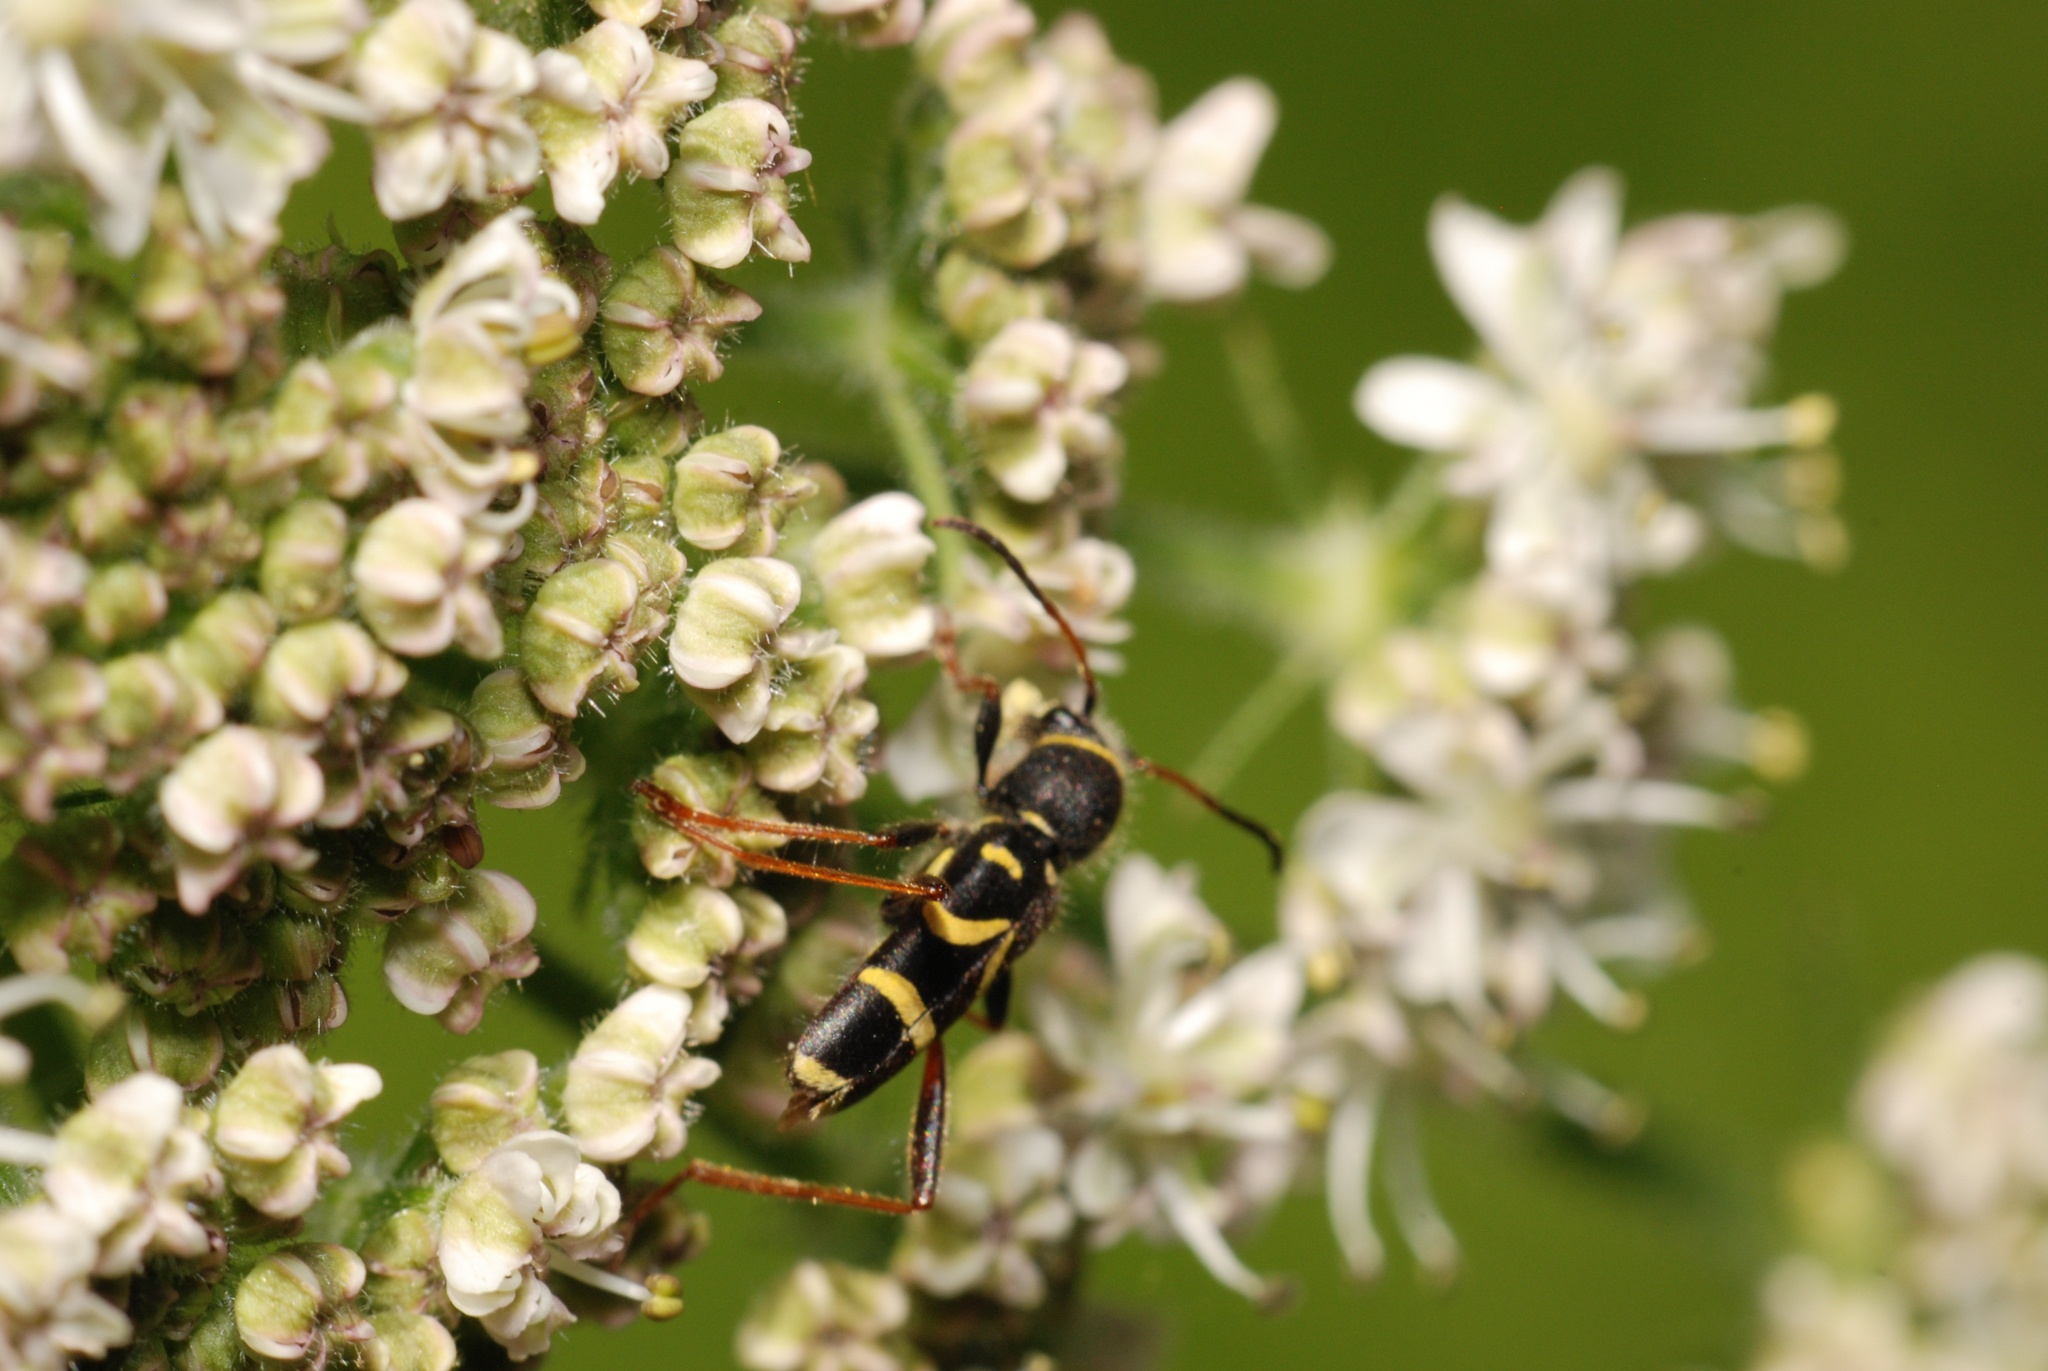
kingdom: Animalia
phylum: Arthropoda
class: Insecta
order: Coleoptera
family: Cerambycidae
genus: Clytus
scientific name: Clytus arietis
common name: Wasp beetle
